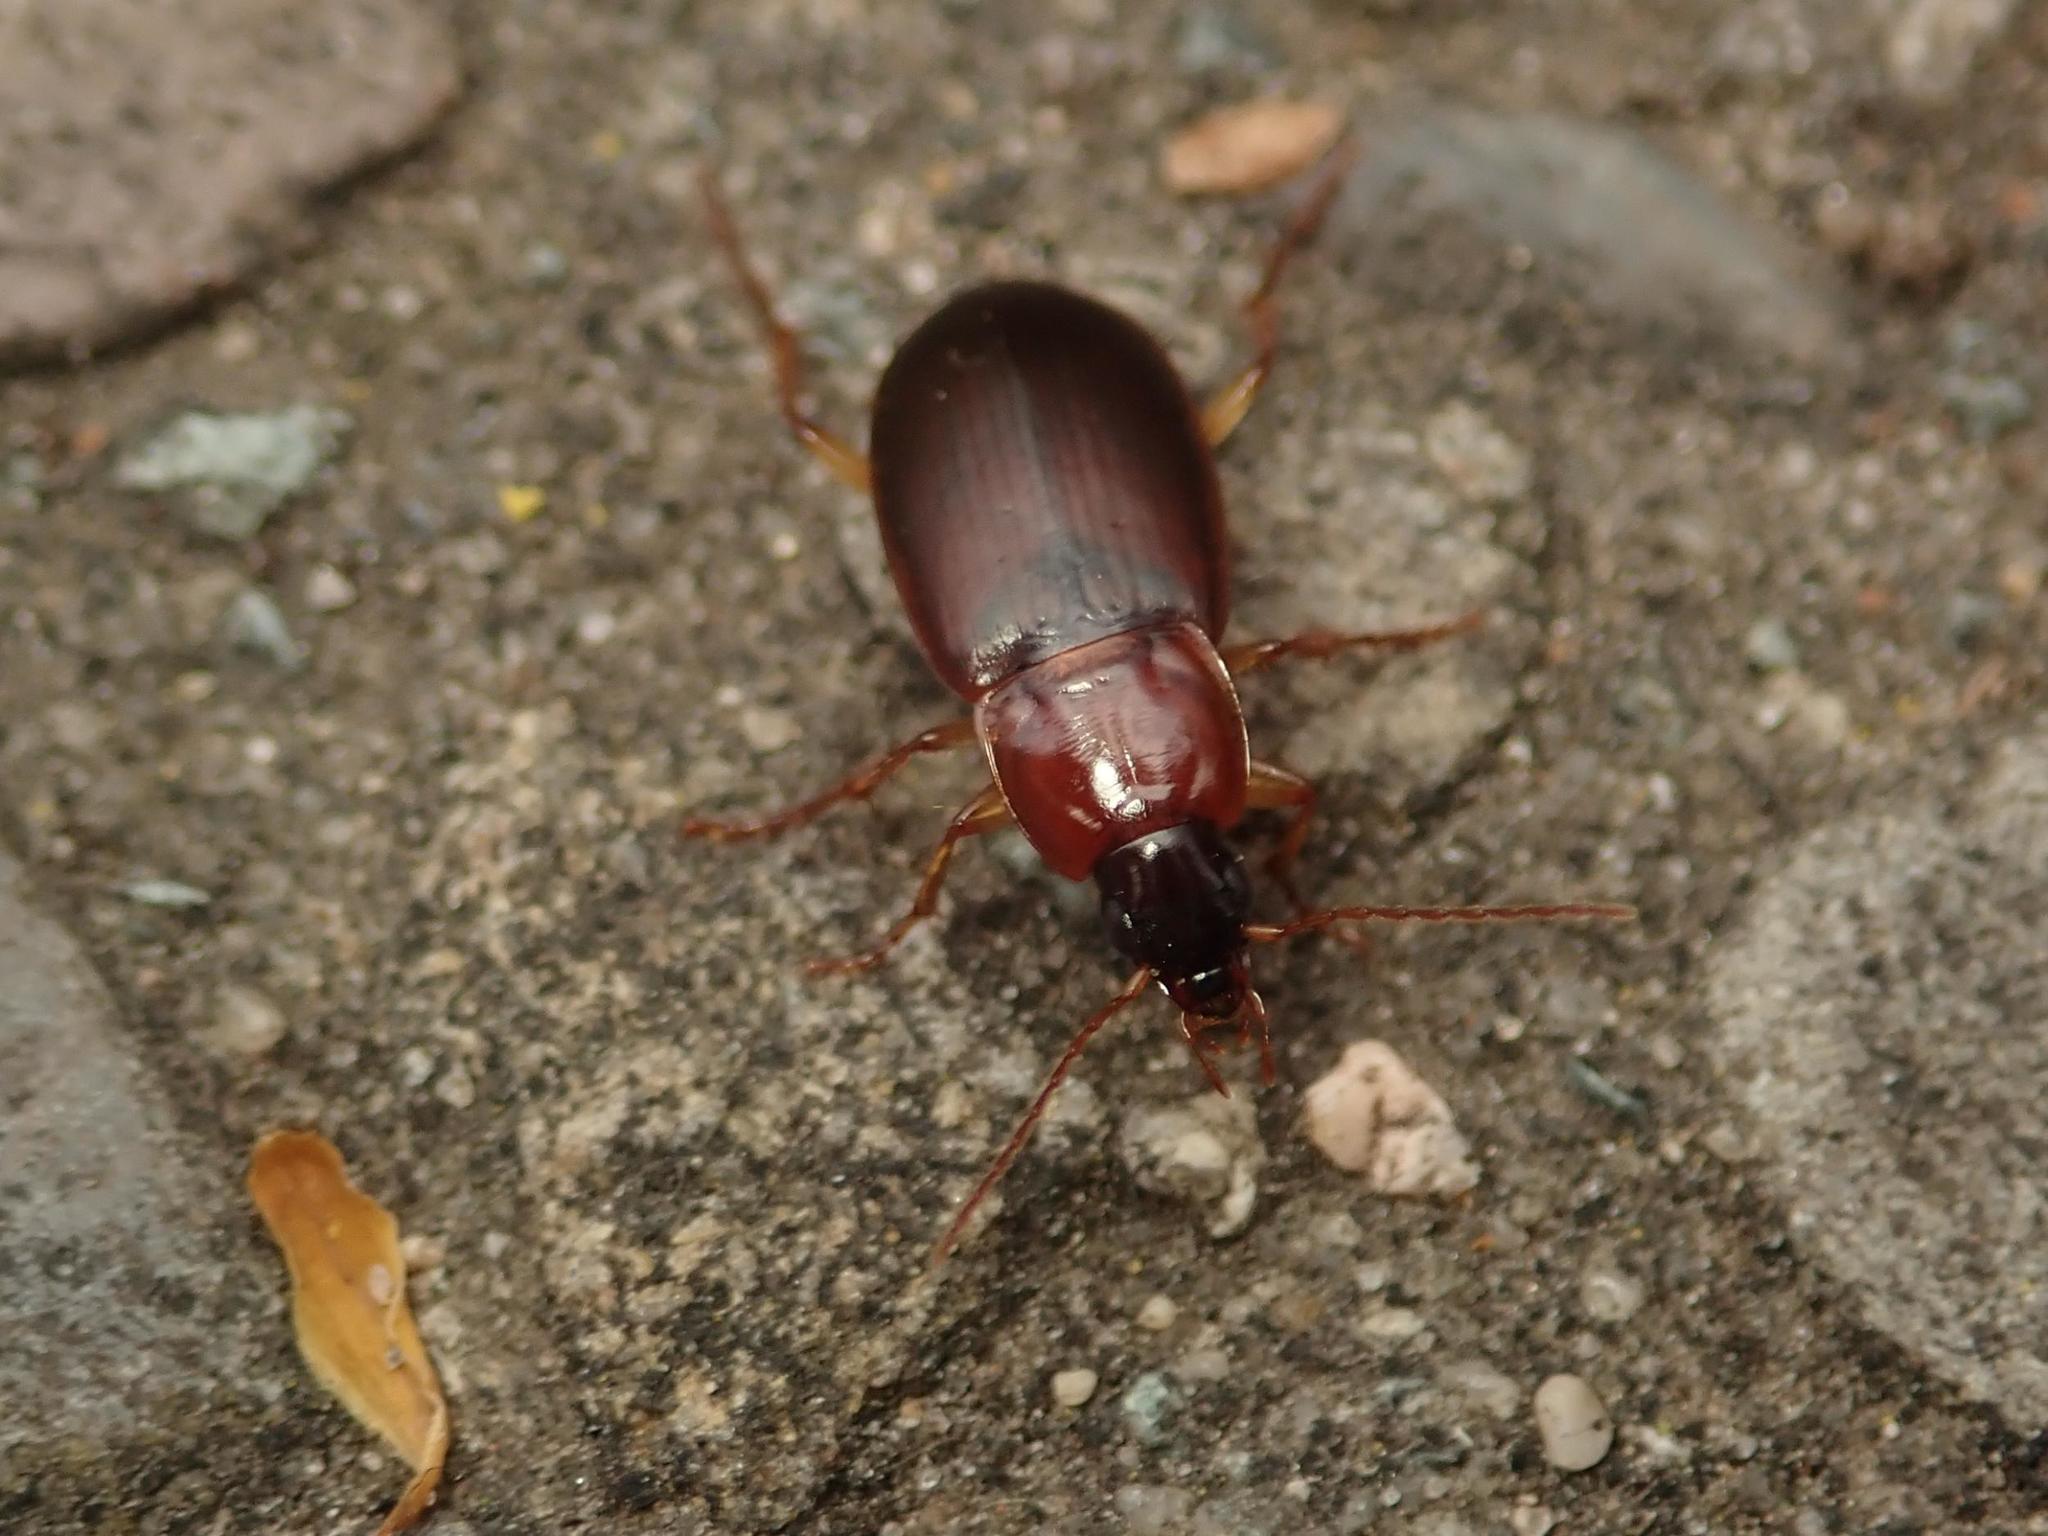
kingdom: Animalia
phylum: Arthropoda
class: Insecta
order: Coleoptera
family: Carabidae
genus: Calathus
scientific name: Calathus cinctus
